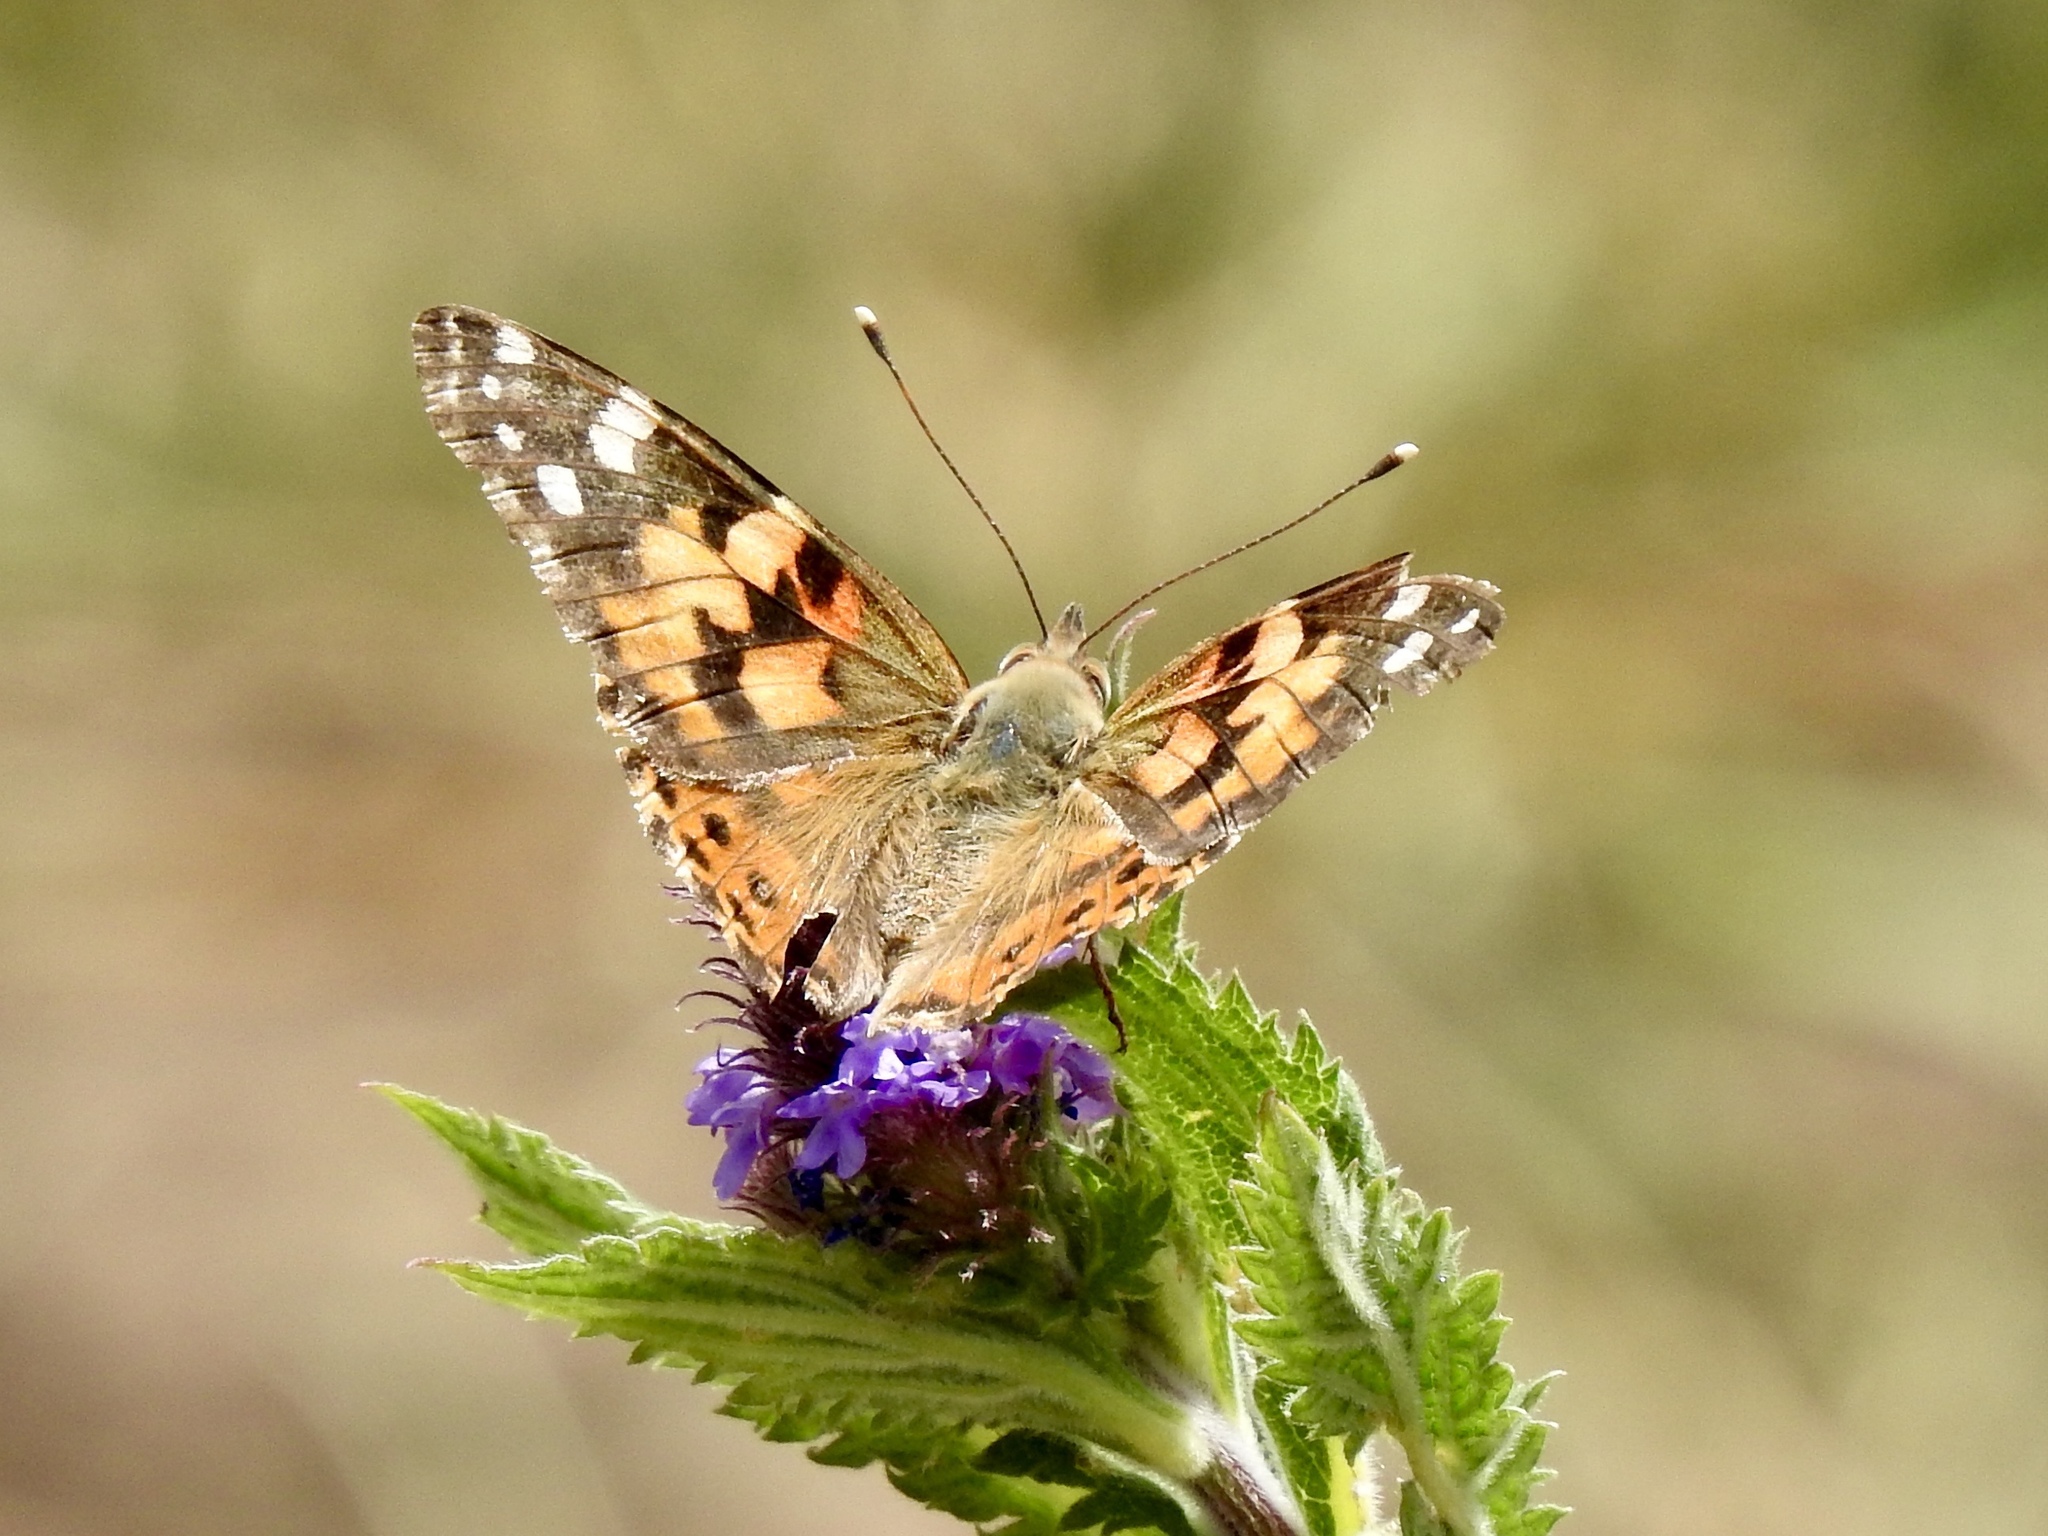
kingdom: Animalia
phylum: Arthropoda
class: Insecta
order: Lepidoptera
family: Nymphalidae
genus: Vanessa
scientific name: Vanessa cardui
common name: Painted lady
